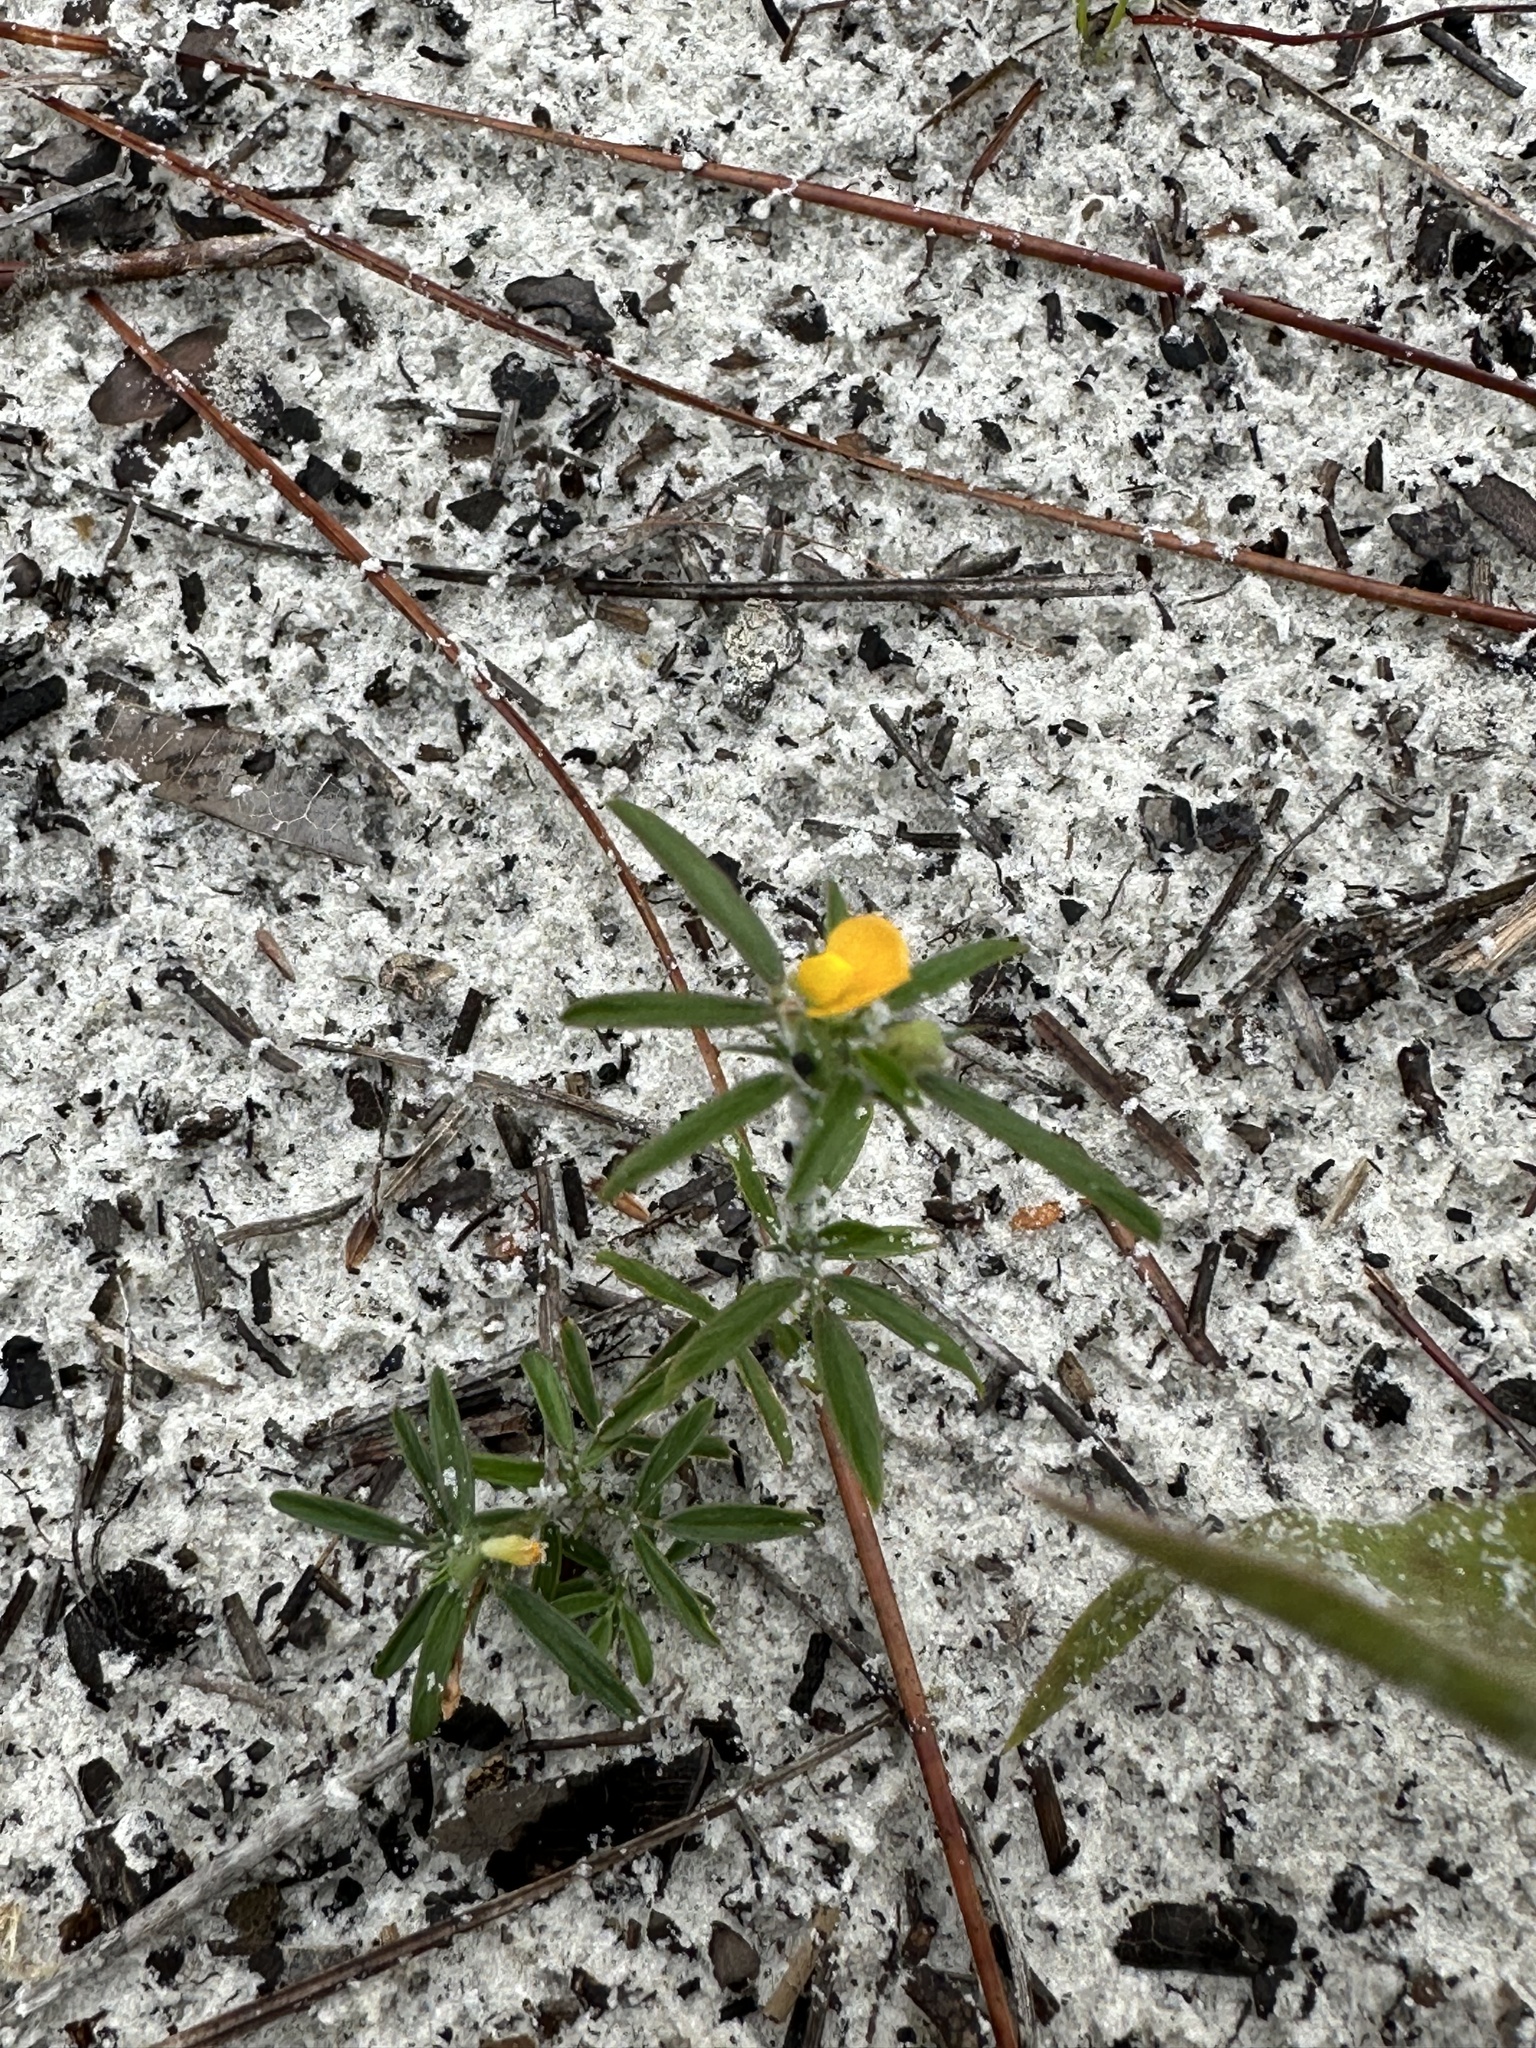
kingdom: Plantae
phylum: Tracheophyta
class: Magnoliopsida
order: Fabales
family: Fabaceae
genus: Stylosanthes
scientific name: Stylosanthes biflora
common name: Two-flower pencil-flower
